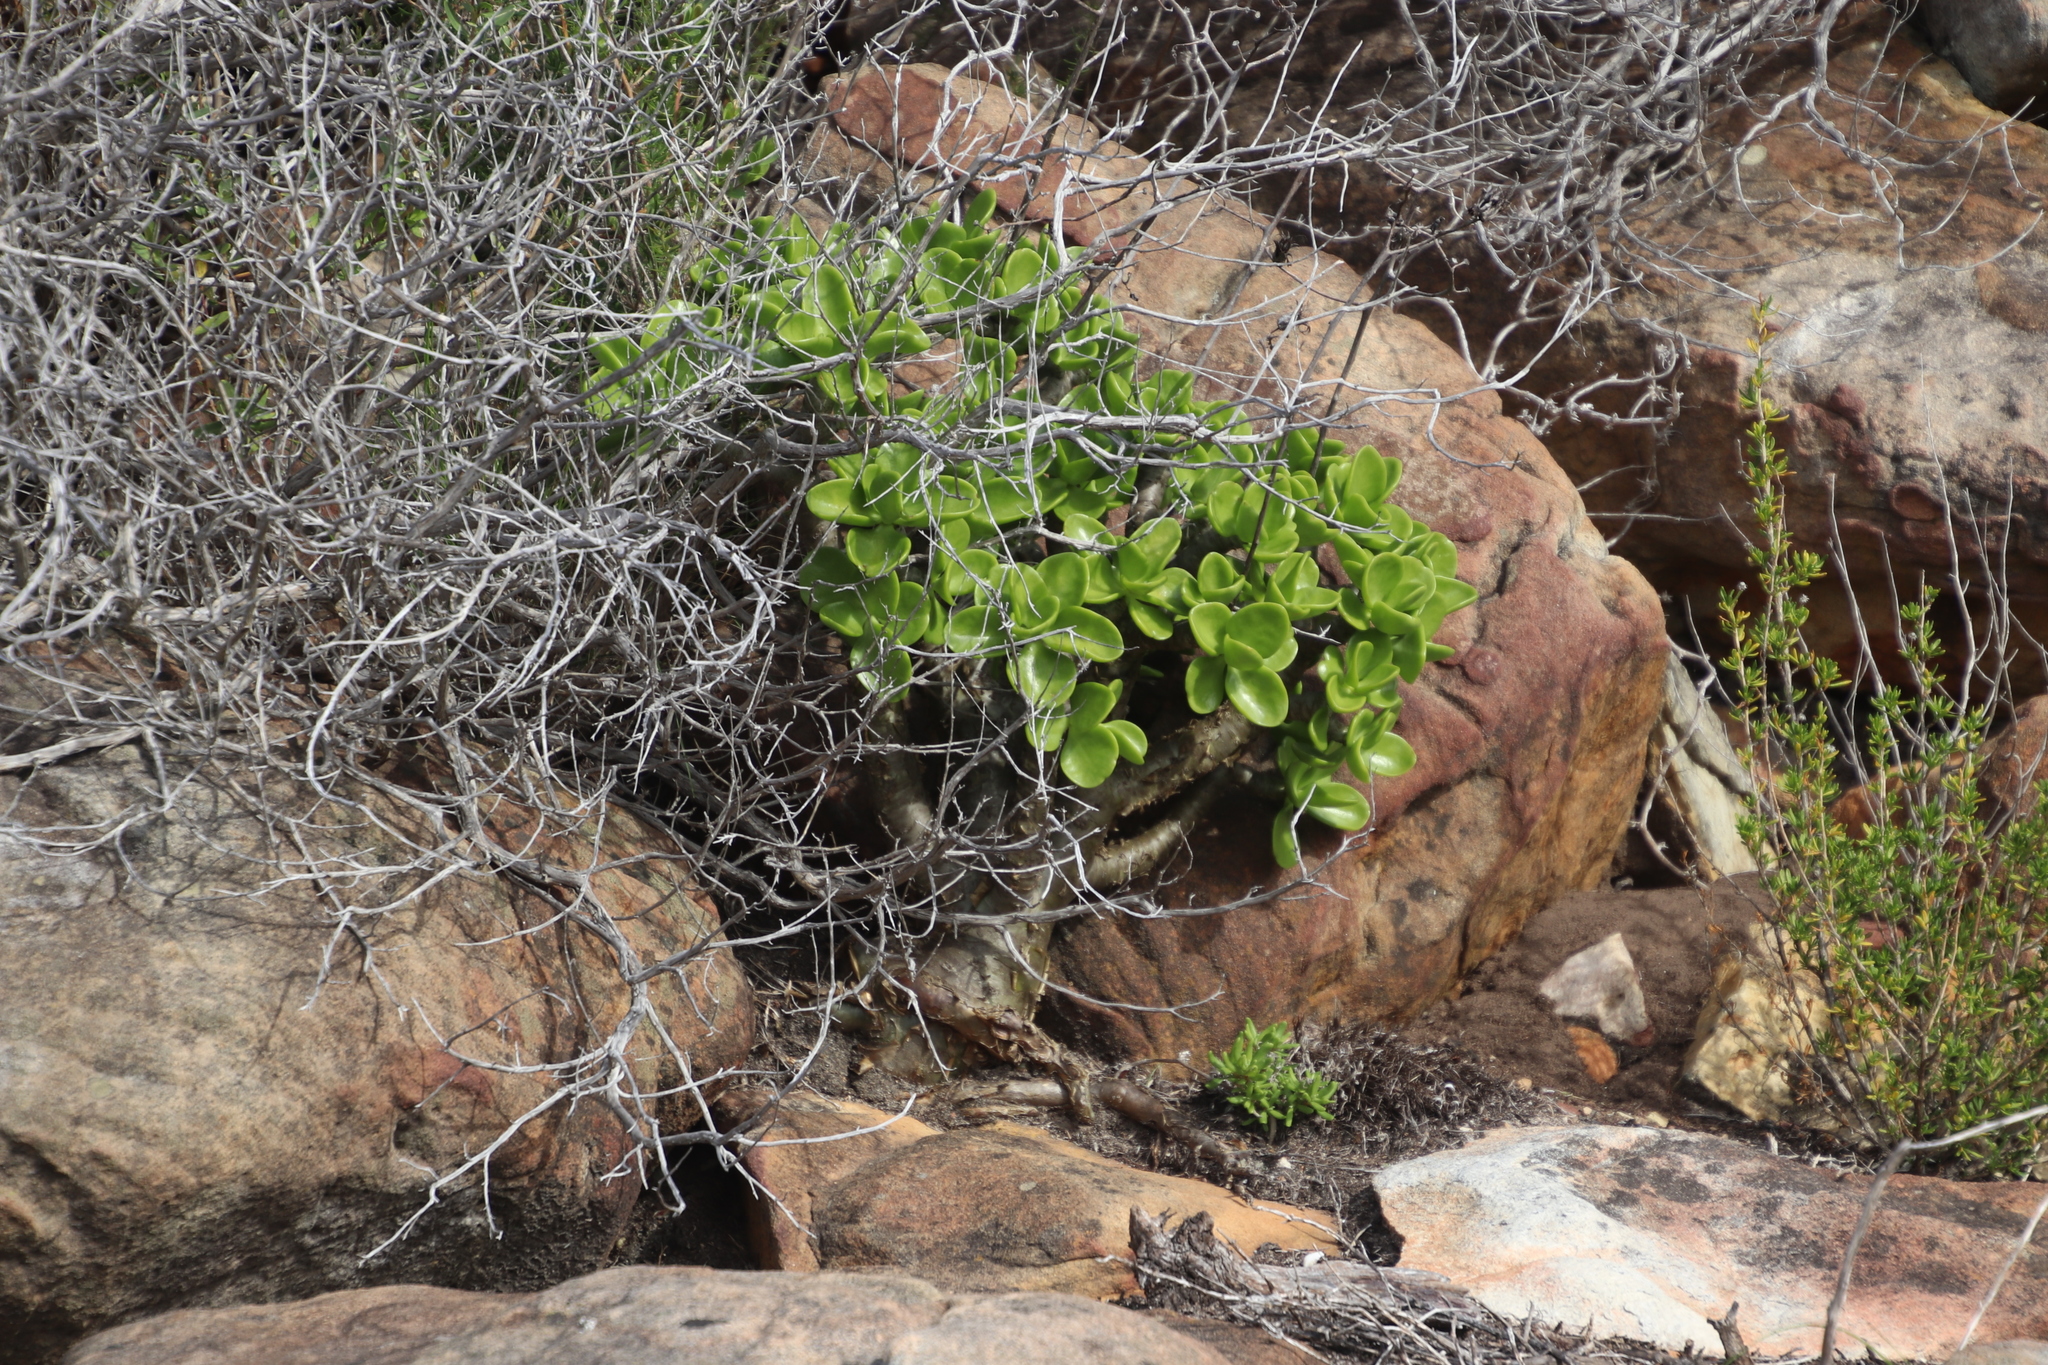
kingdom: Plantae
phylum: Tracheophyta
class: Magnoliopsida
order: Saxifragales
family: Crassulaceae
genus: Tylecodon
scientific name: Tylecodon paniculatus
